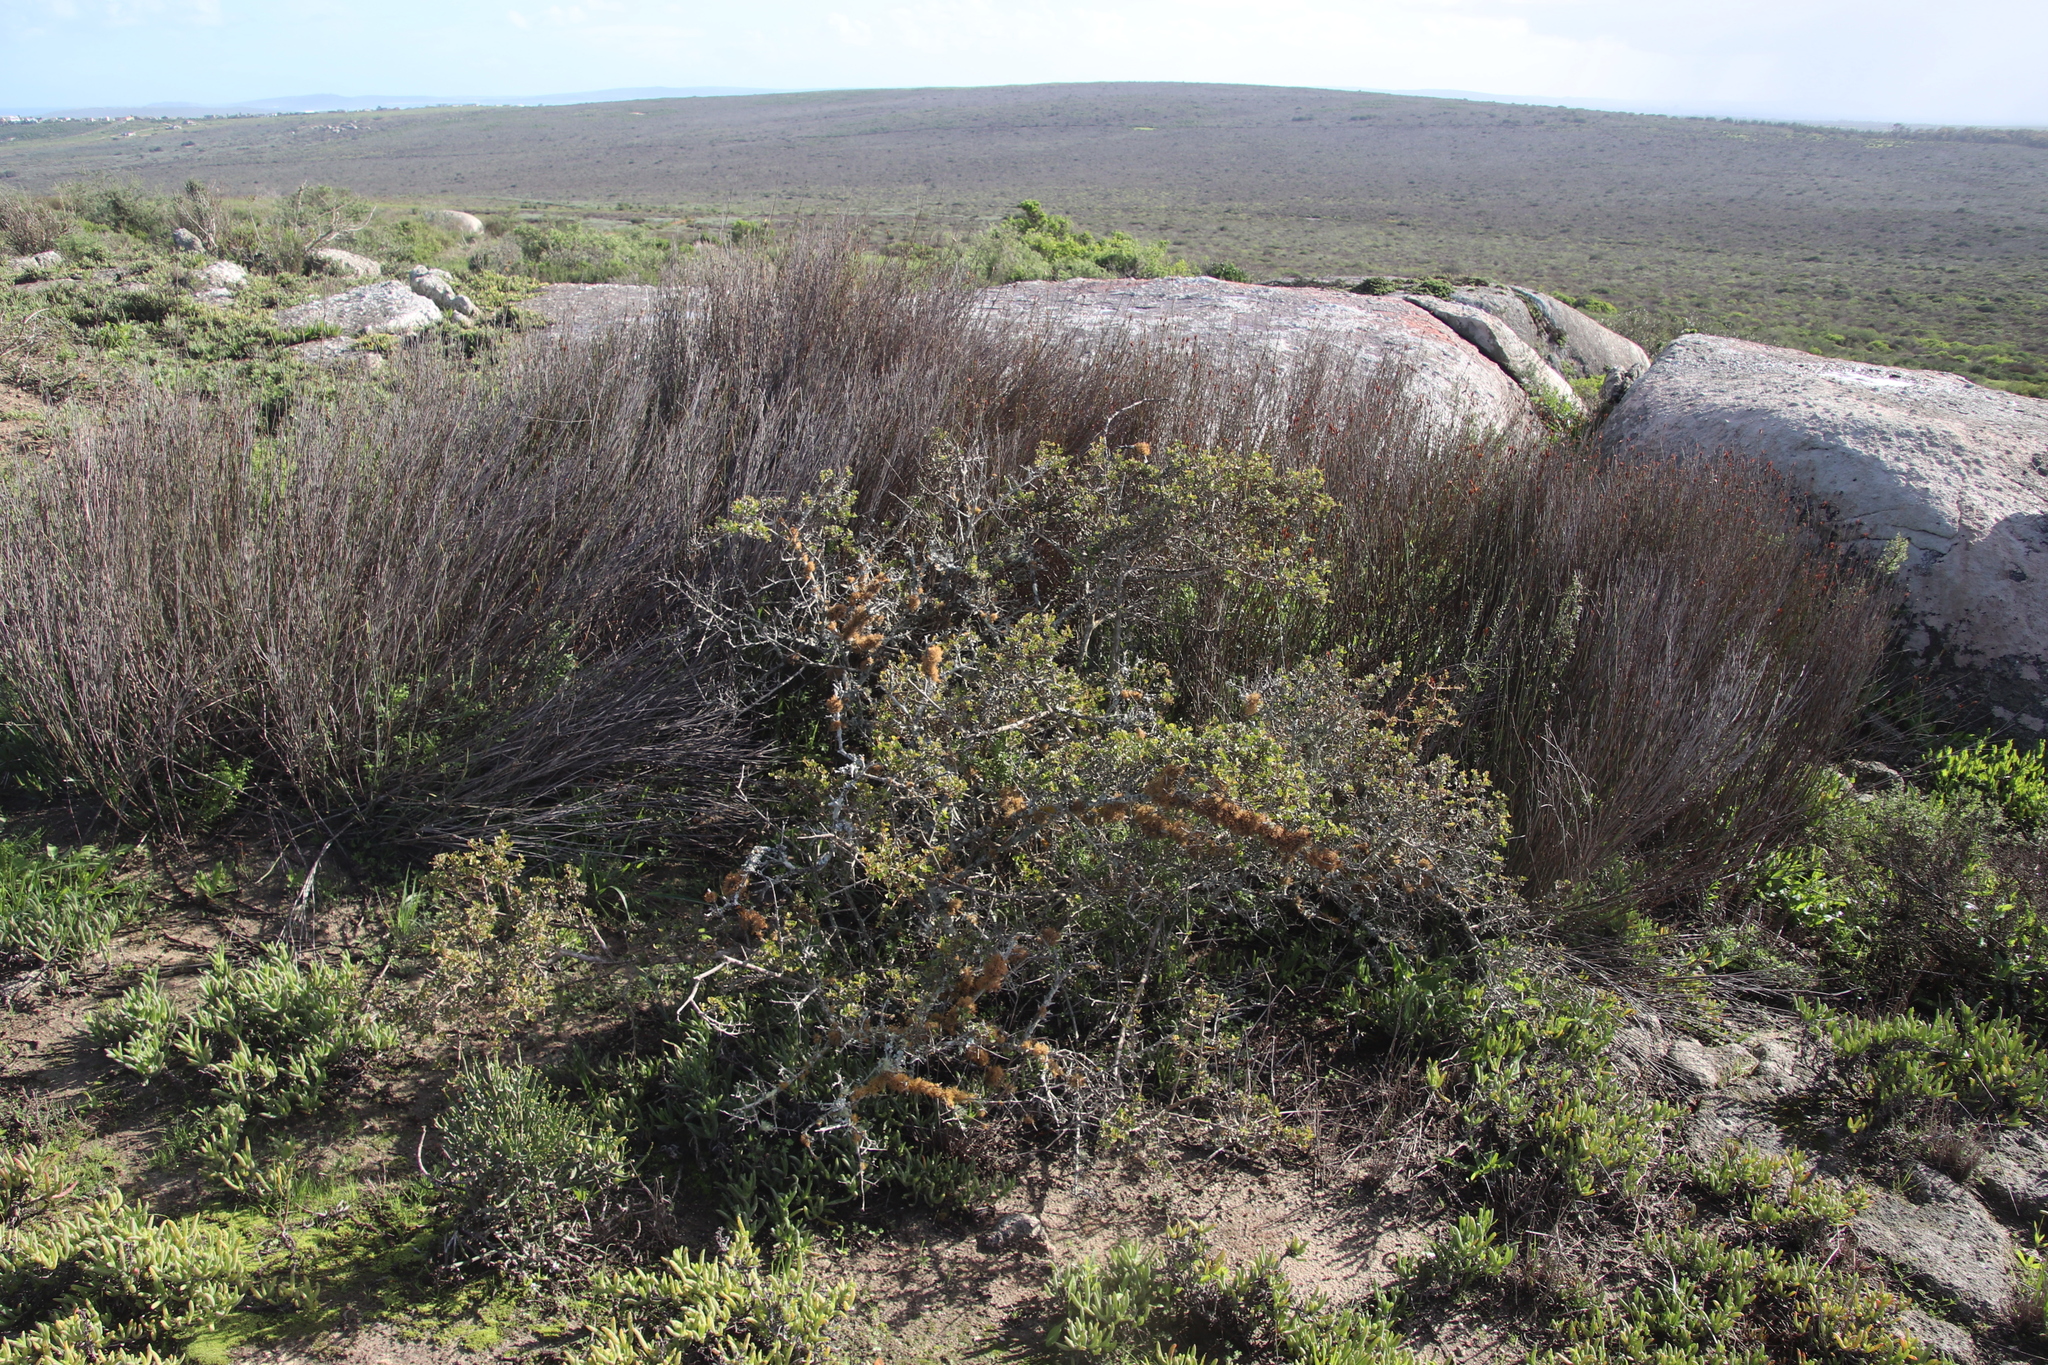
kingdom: Plantae
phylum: Tracheophyta
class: Liliopsida
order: Poales
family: Restionaceae
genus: Willdenowia
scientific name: Willdenowia incurvata
